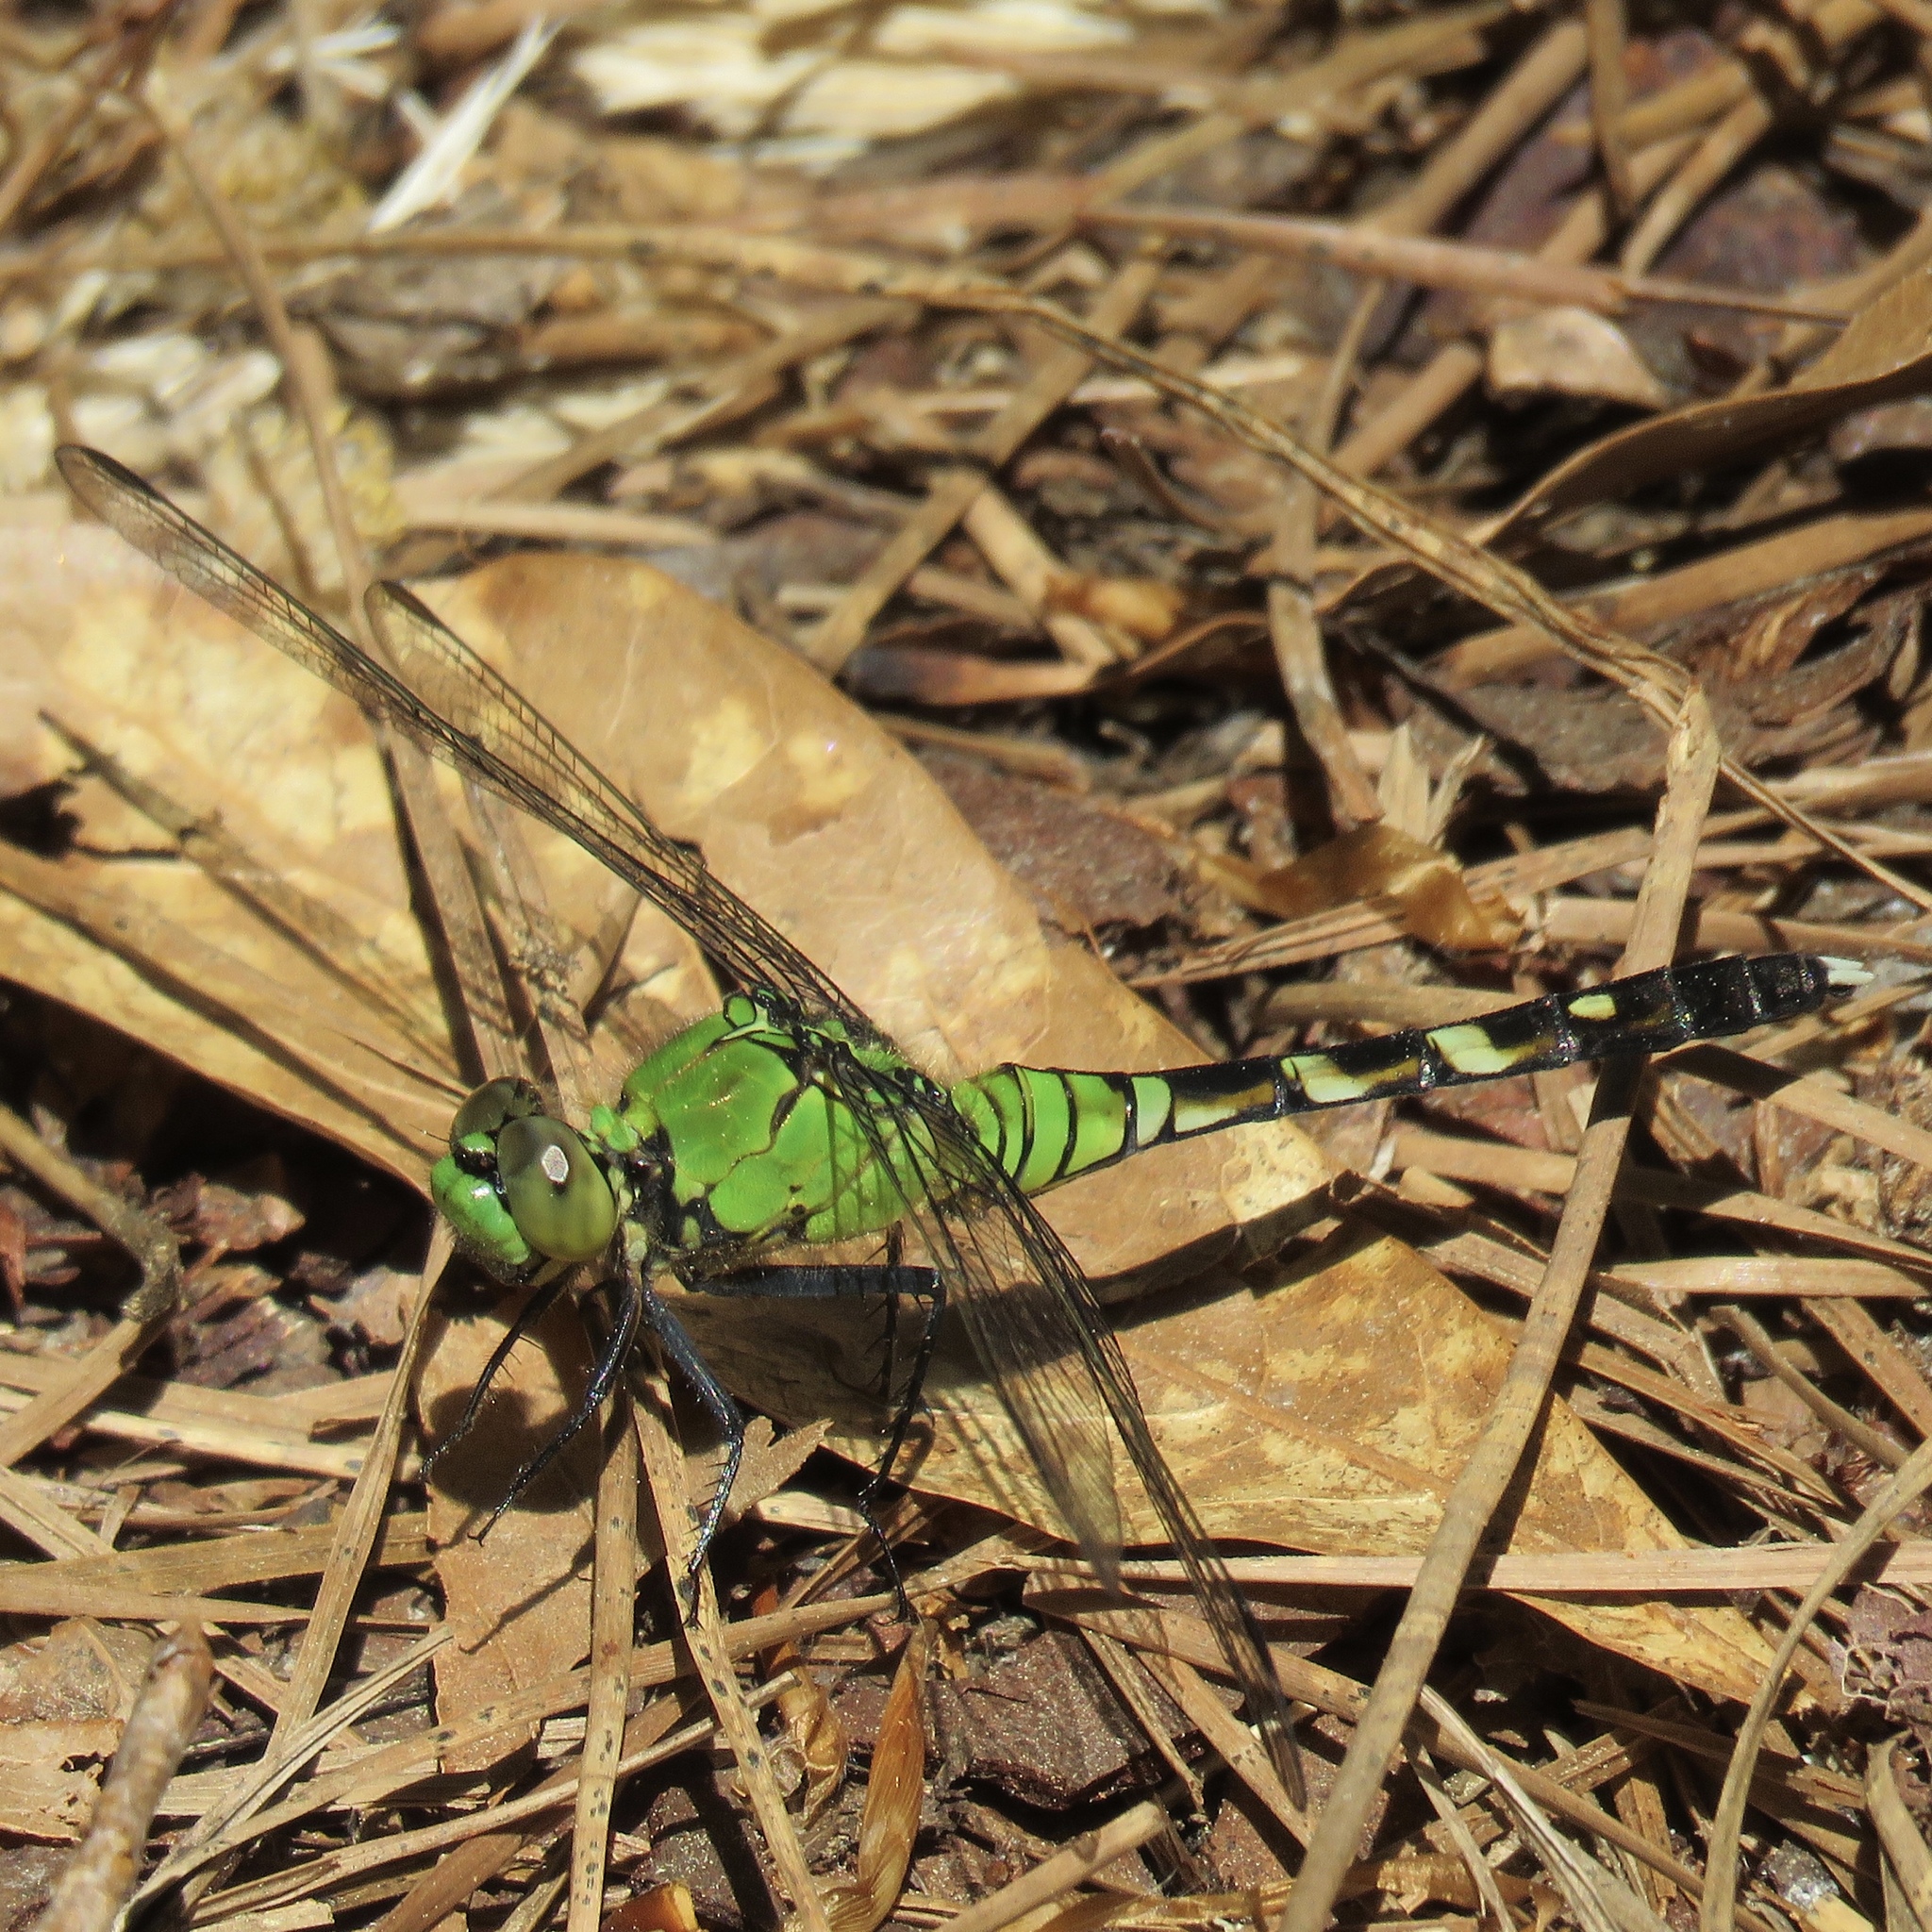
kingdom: Animalia
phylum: Arthropoda
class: Insecta
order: Odonata
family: Libellulidae
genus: Erythemis
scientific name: Erythemis simplicicollis
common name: Eastern pondhawk
